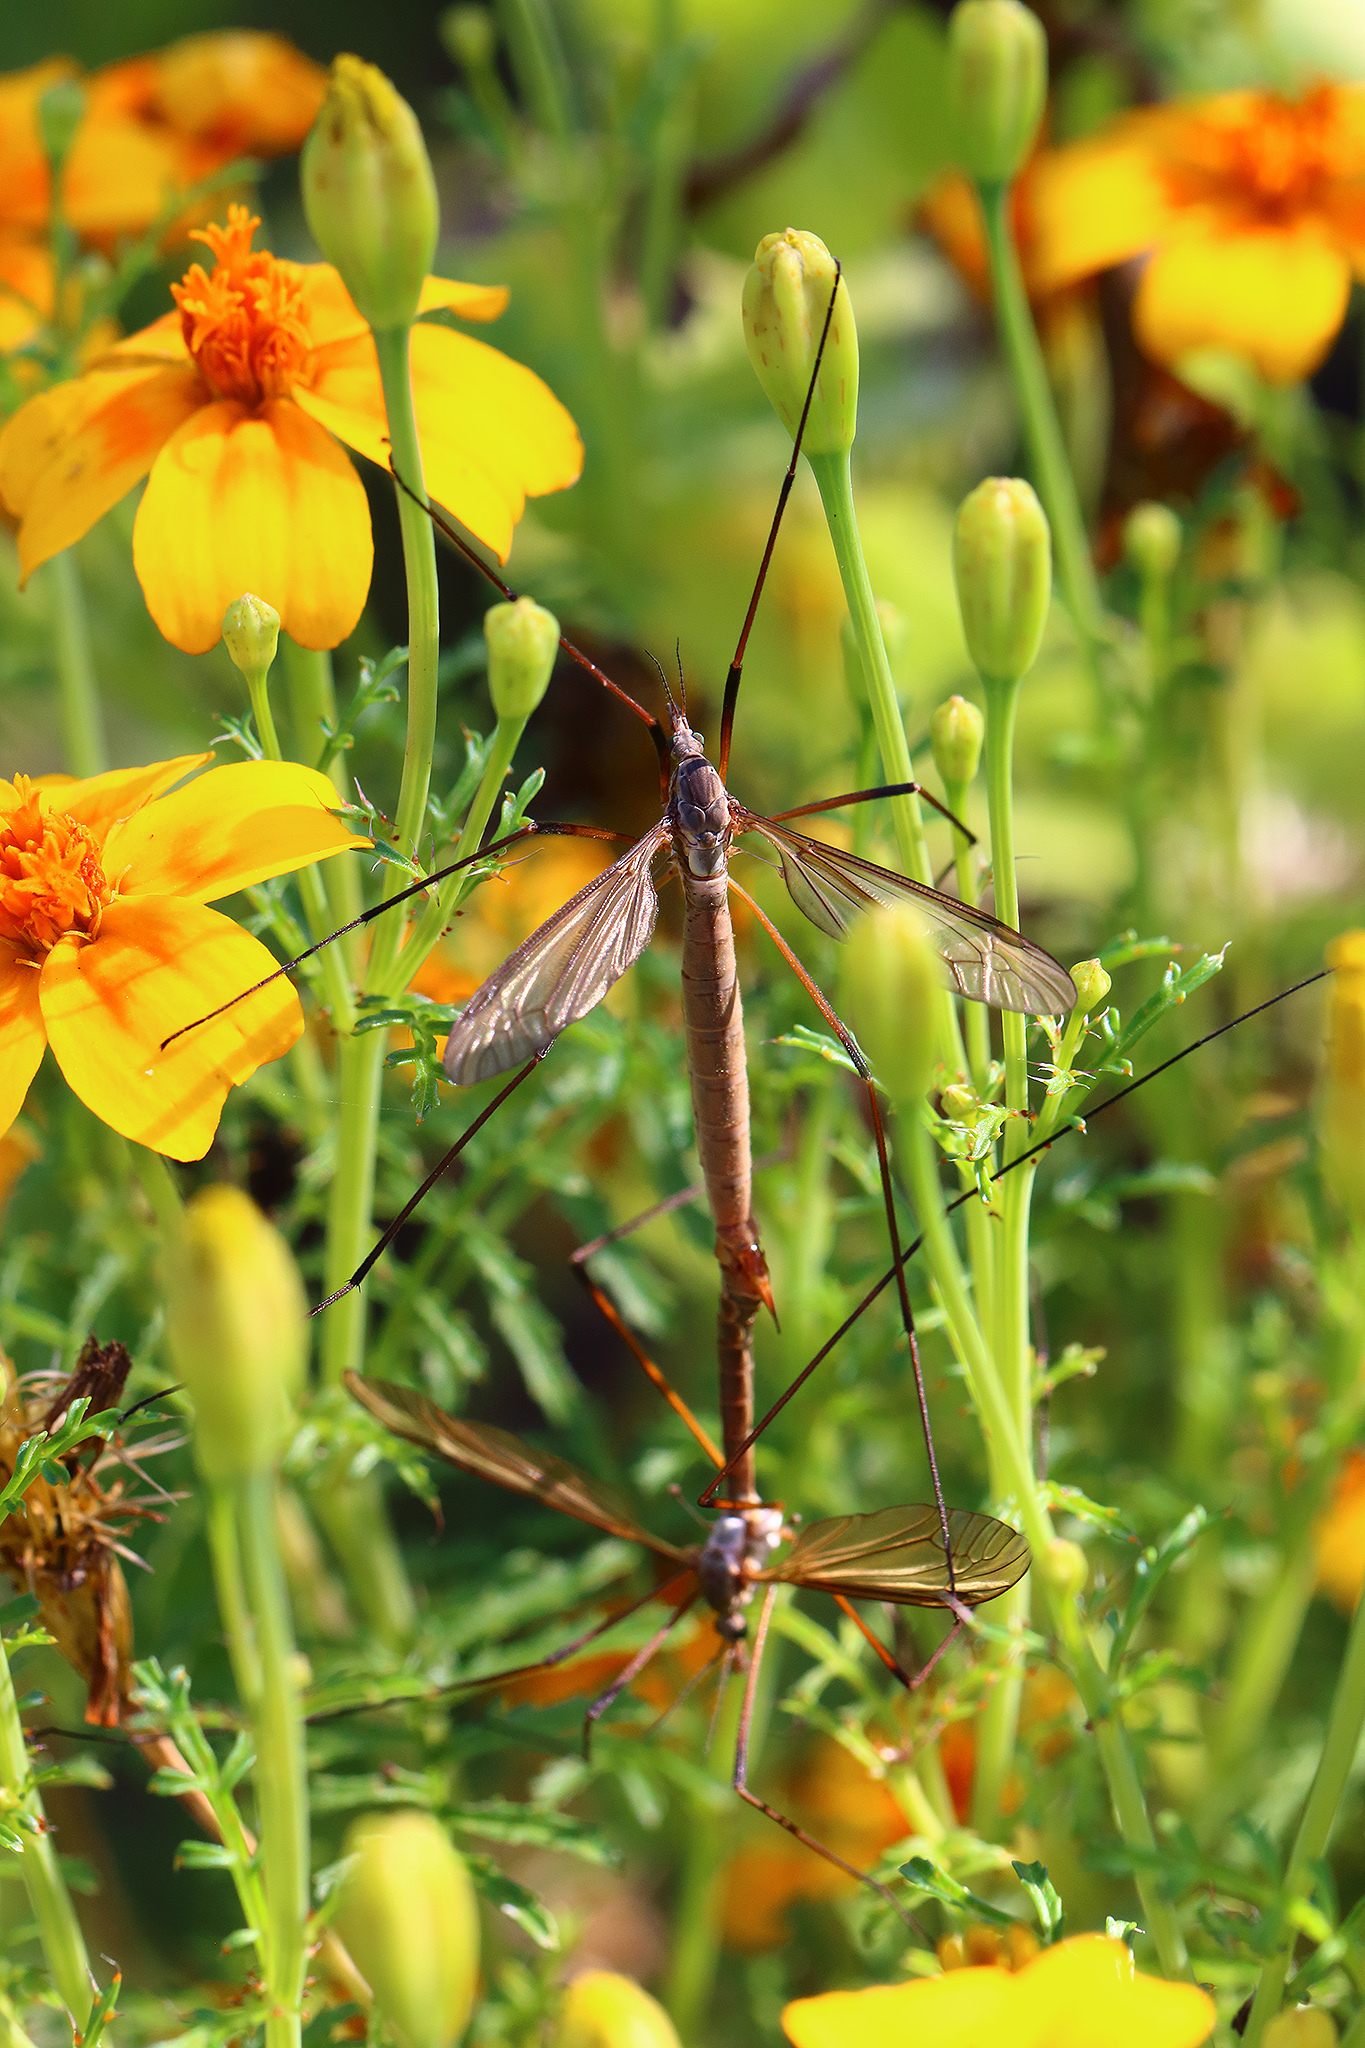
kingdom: Animalia
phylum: Arthropoda
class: Insecta
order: Diptera
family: Tipulidae
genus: Tipula
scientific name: Tipula paludosa
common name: European cranefly
